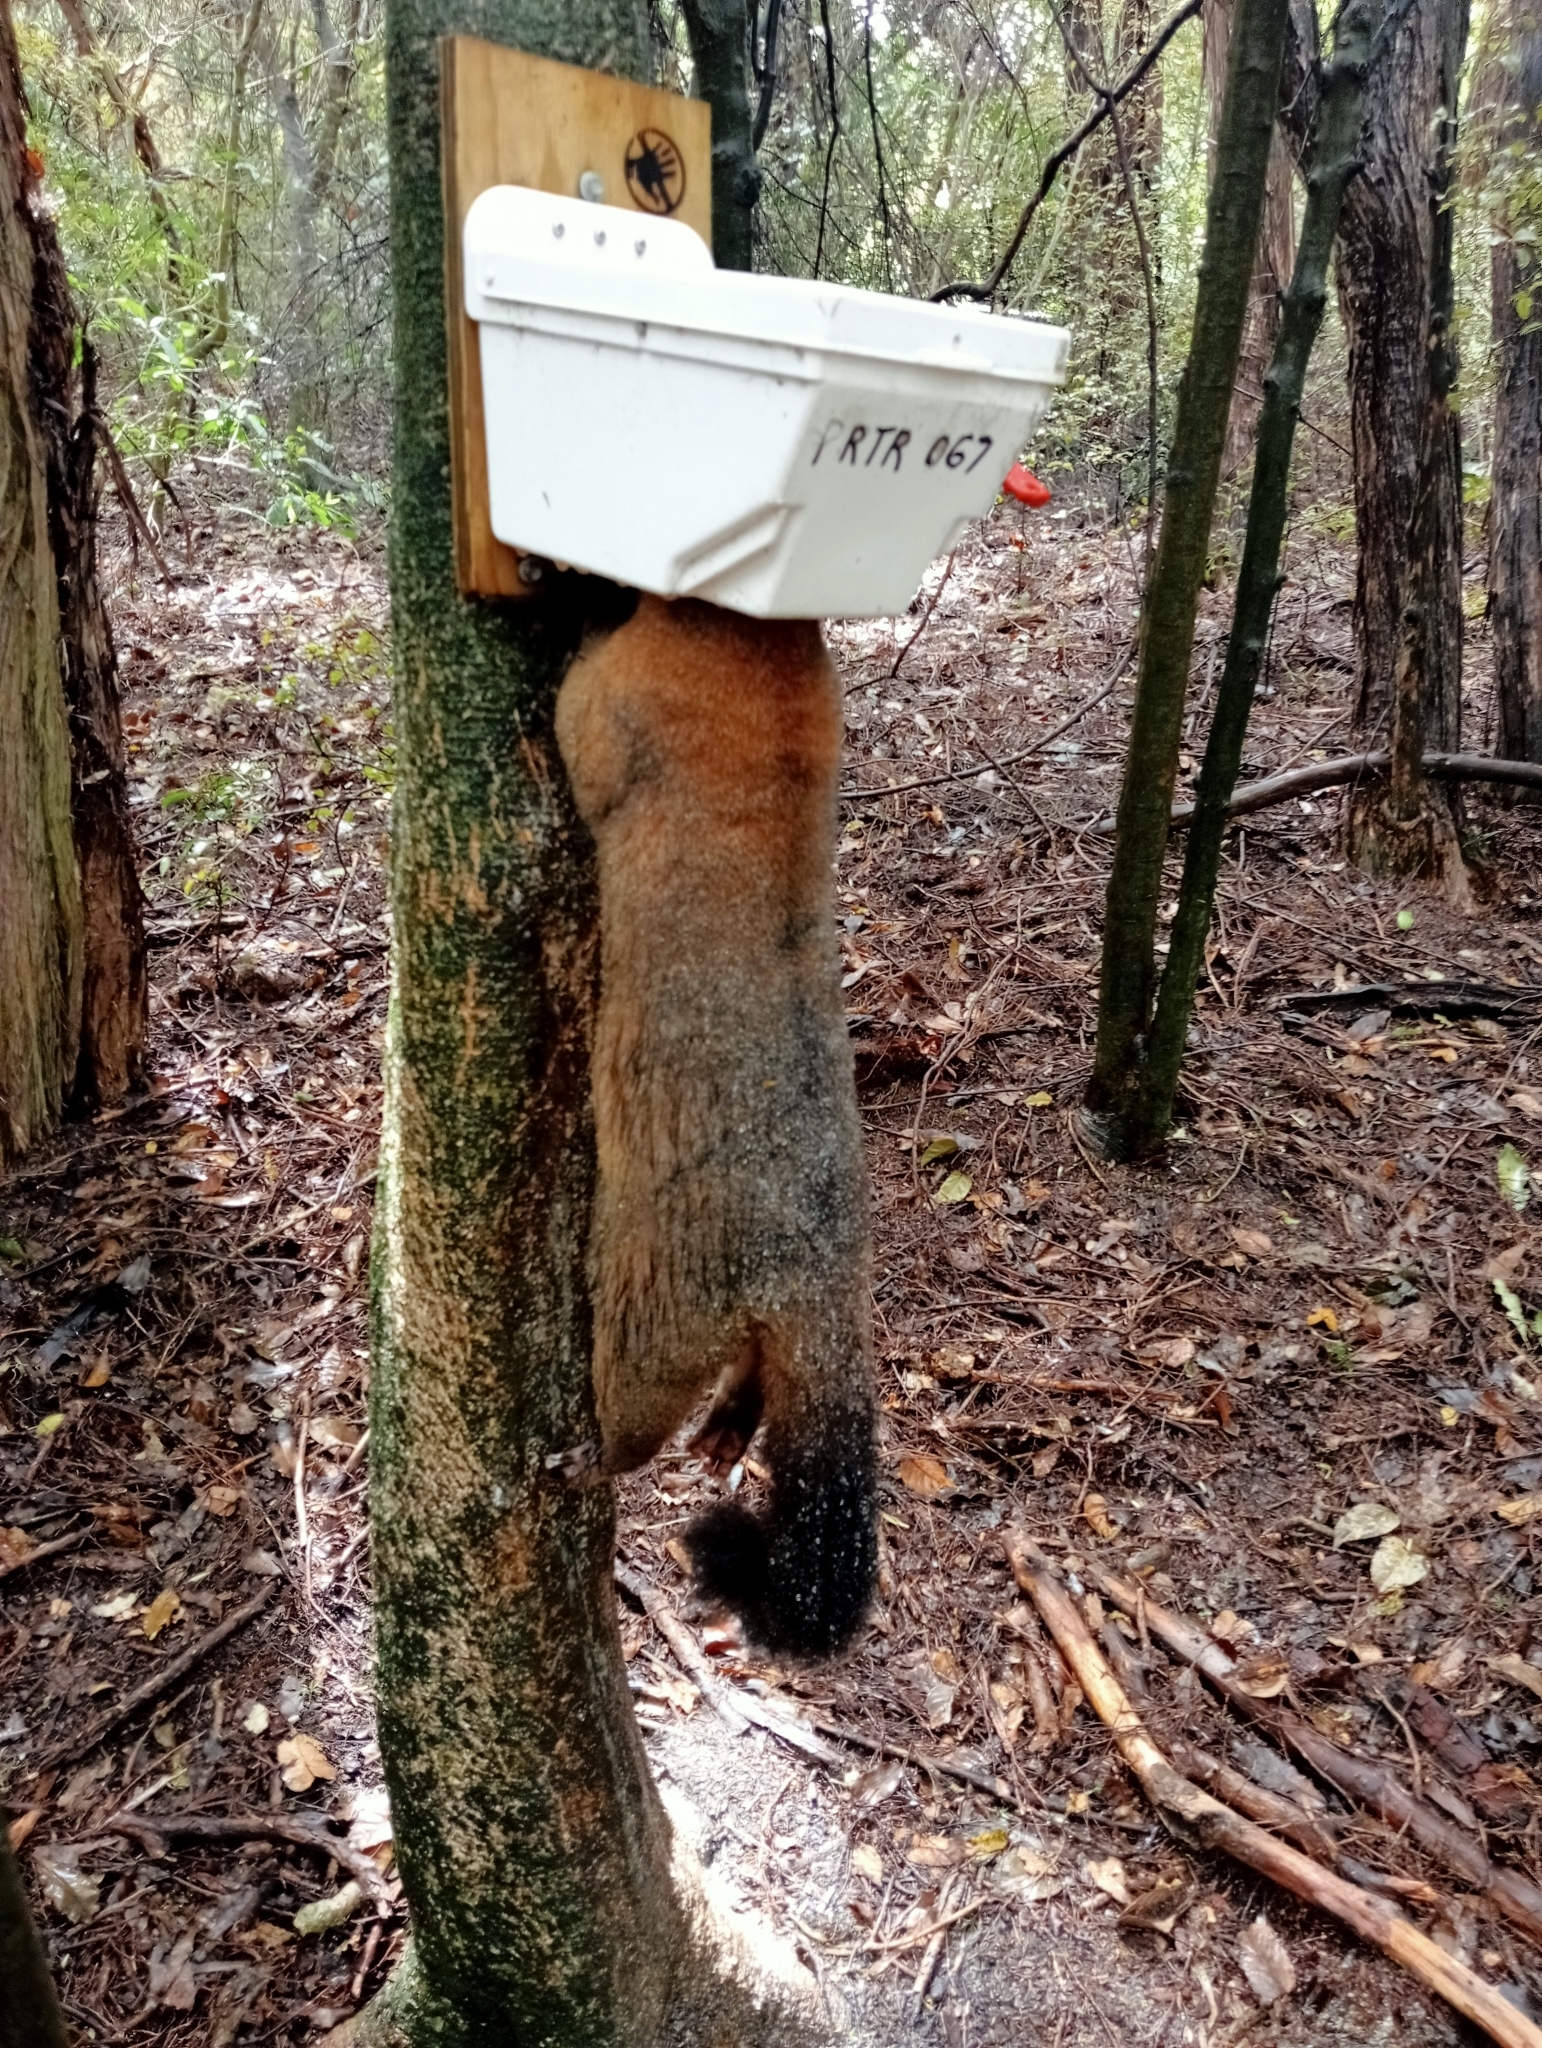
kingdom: Animalia
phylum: Chordata
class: Mammalia
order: Diprotodontia
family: Phalangeridae
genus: Trichosurus
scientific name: Trichosurus vulpecula
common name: Common brushtail
